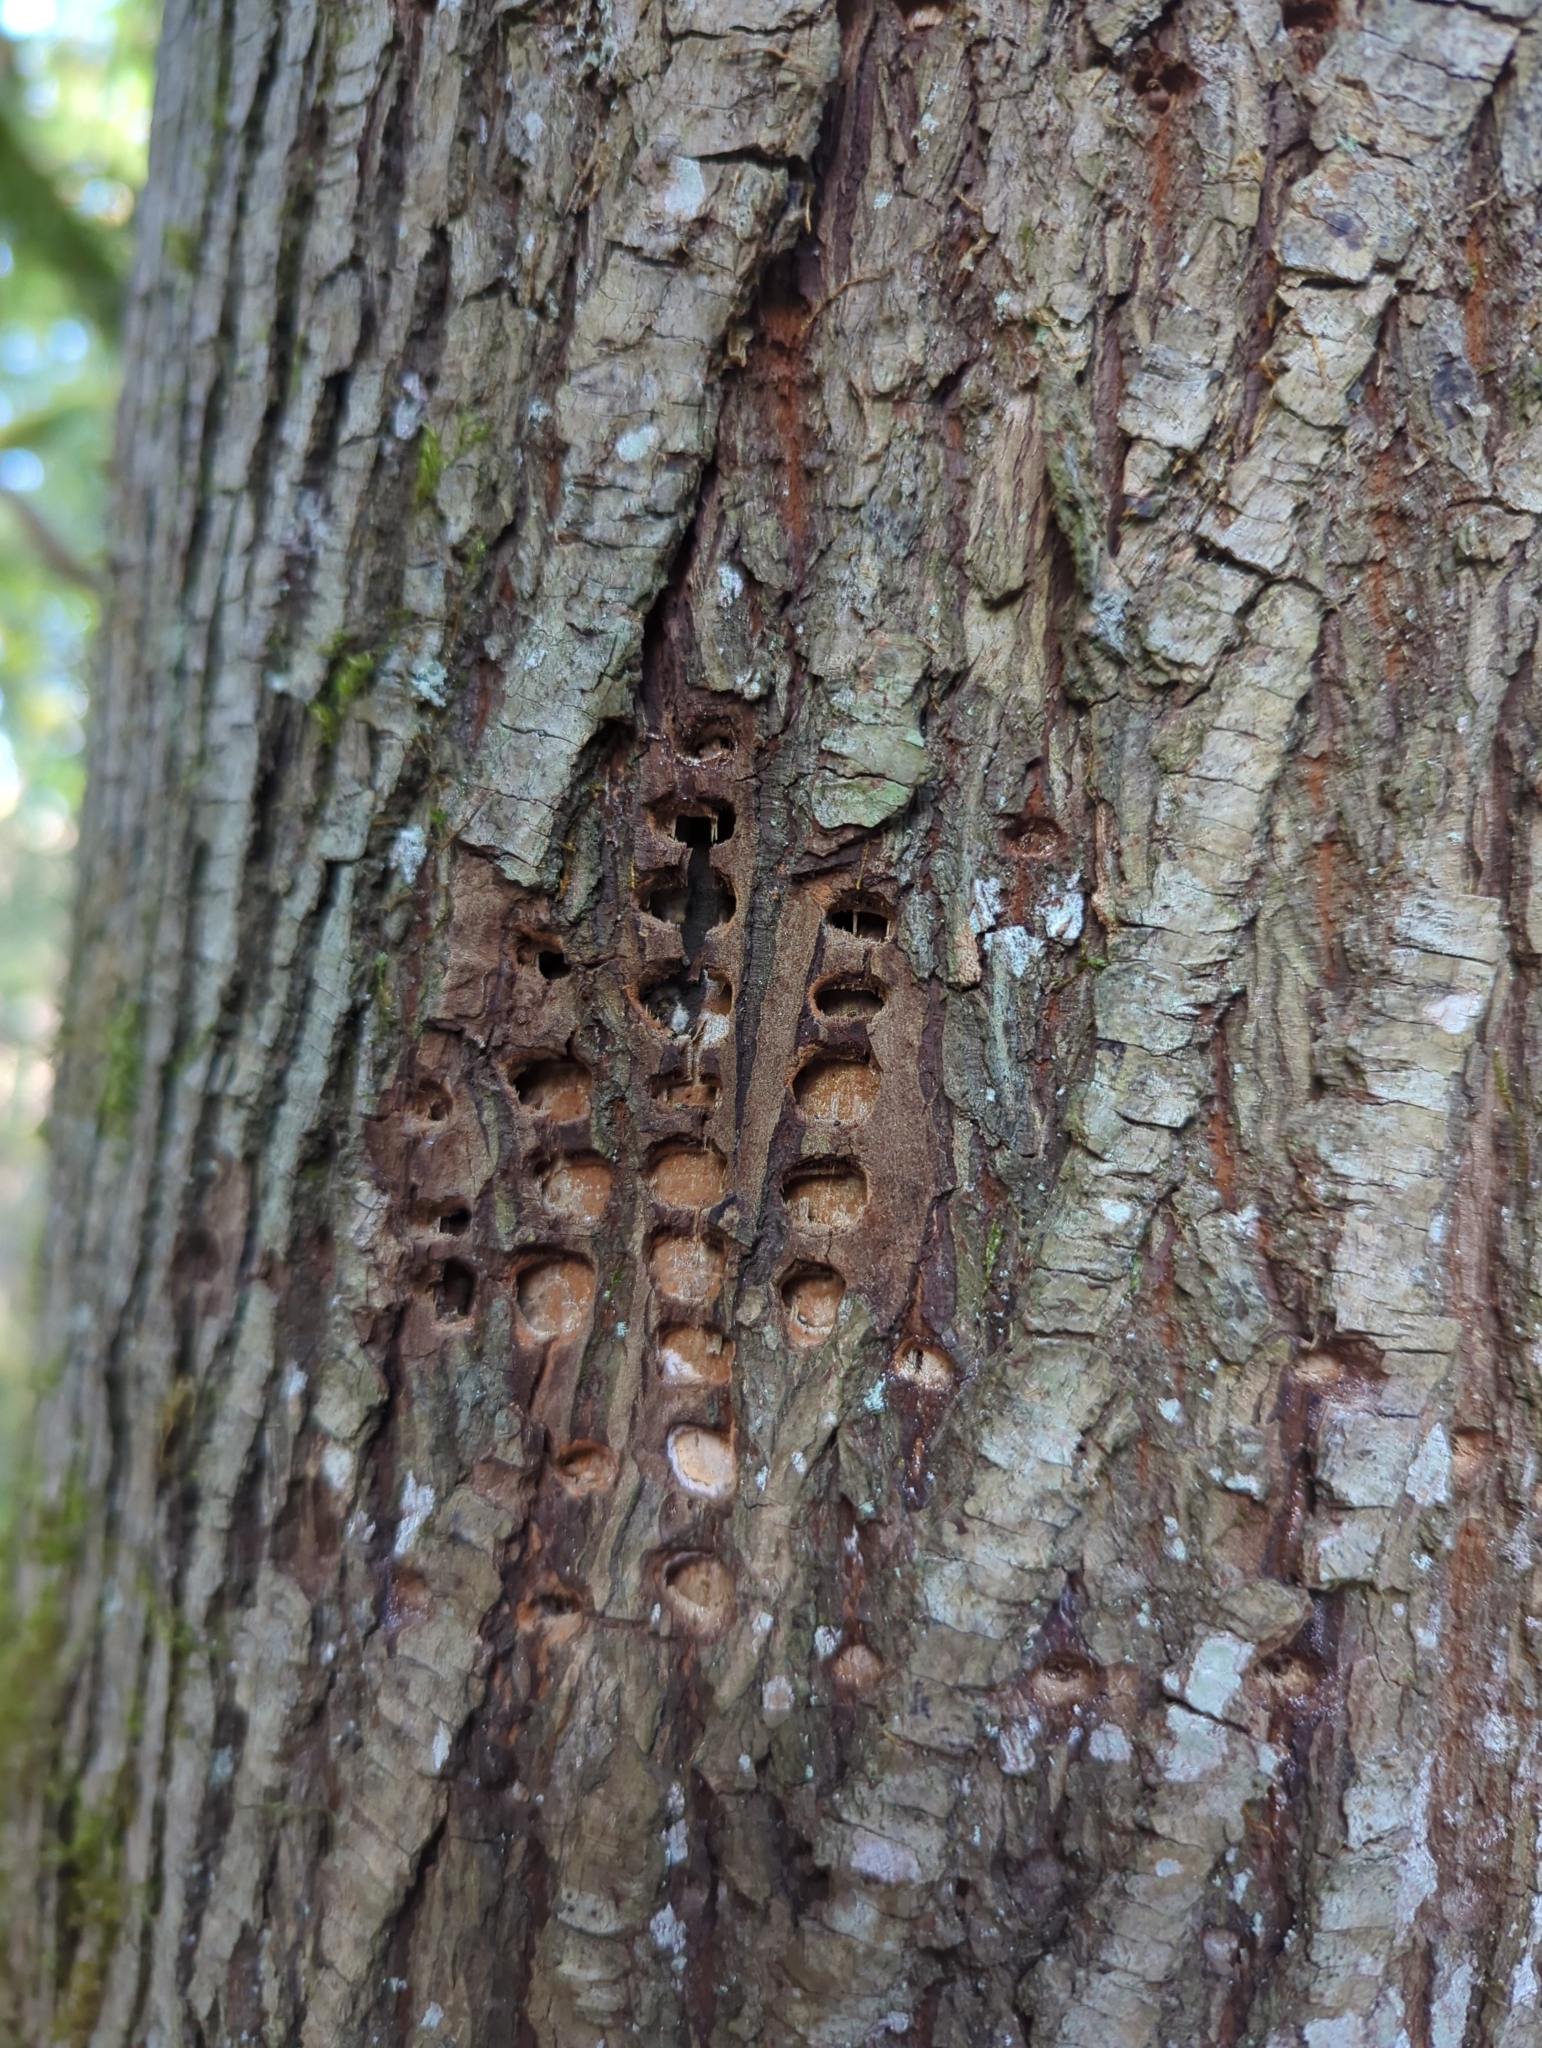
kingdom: Animalia
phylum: Chordata
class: Aves
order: Piciformes
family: Picidae
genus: Sphyrapicus
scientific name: Sphyrapicus ruber
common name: Red-breasted sapsucker
